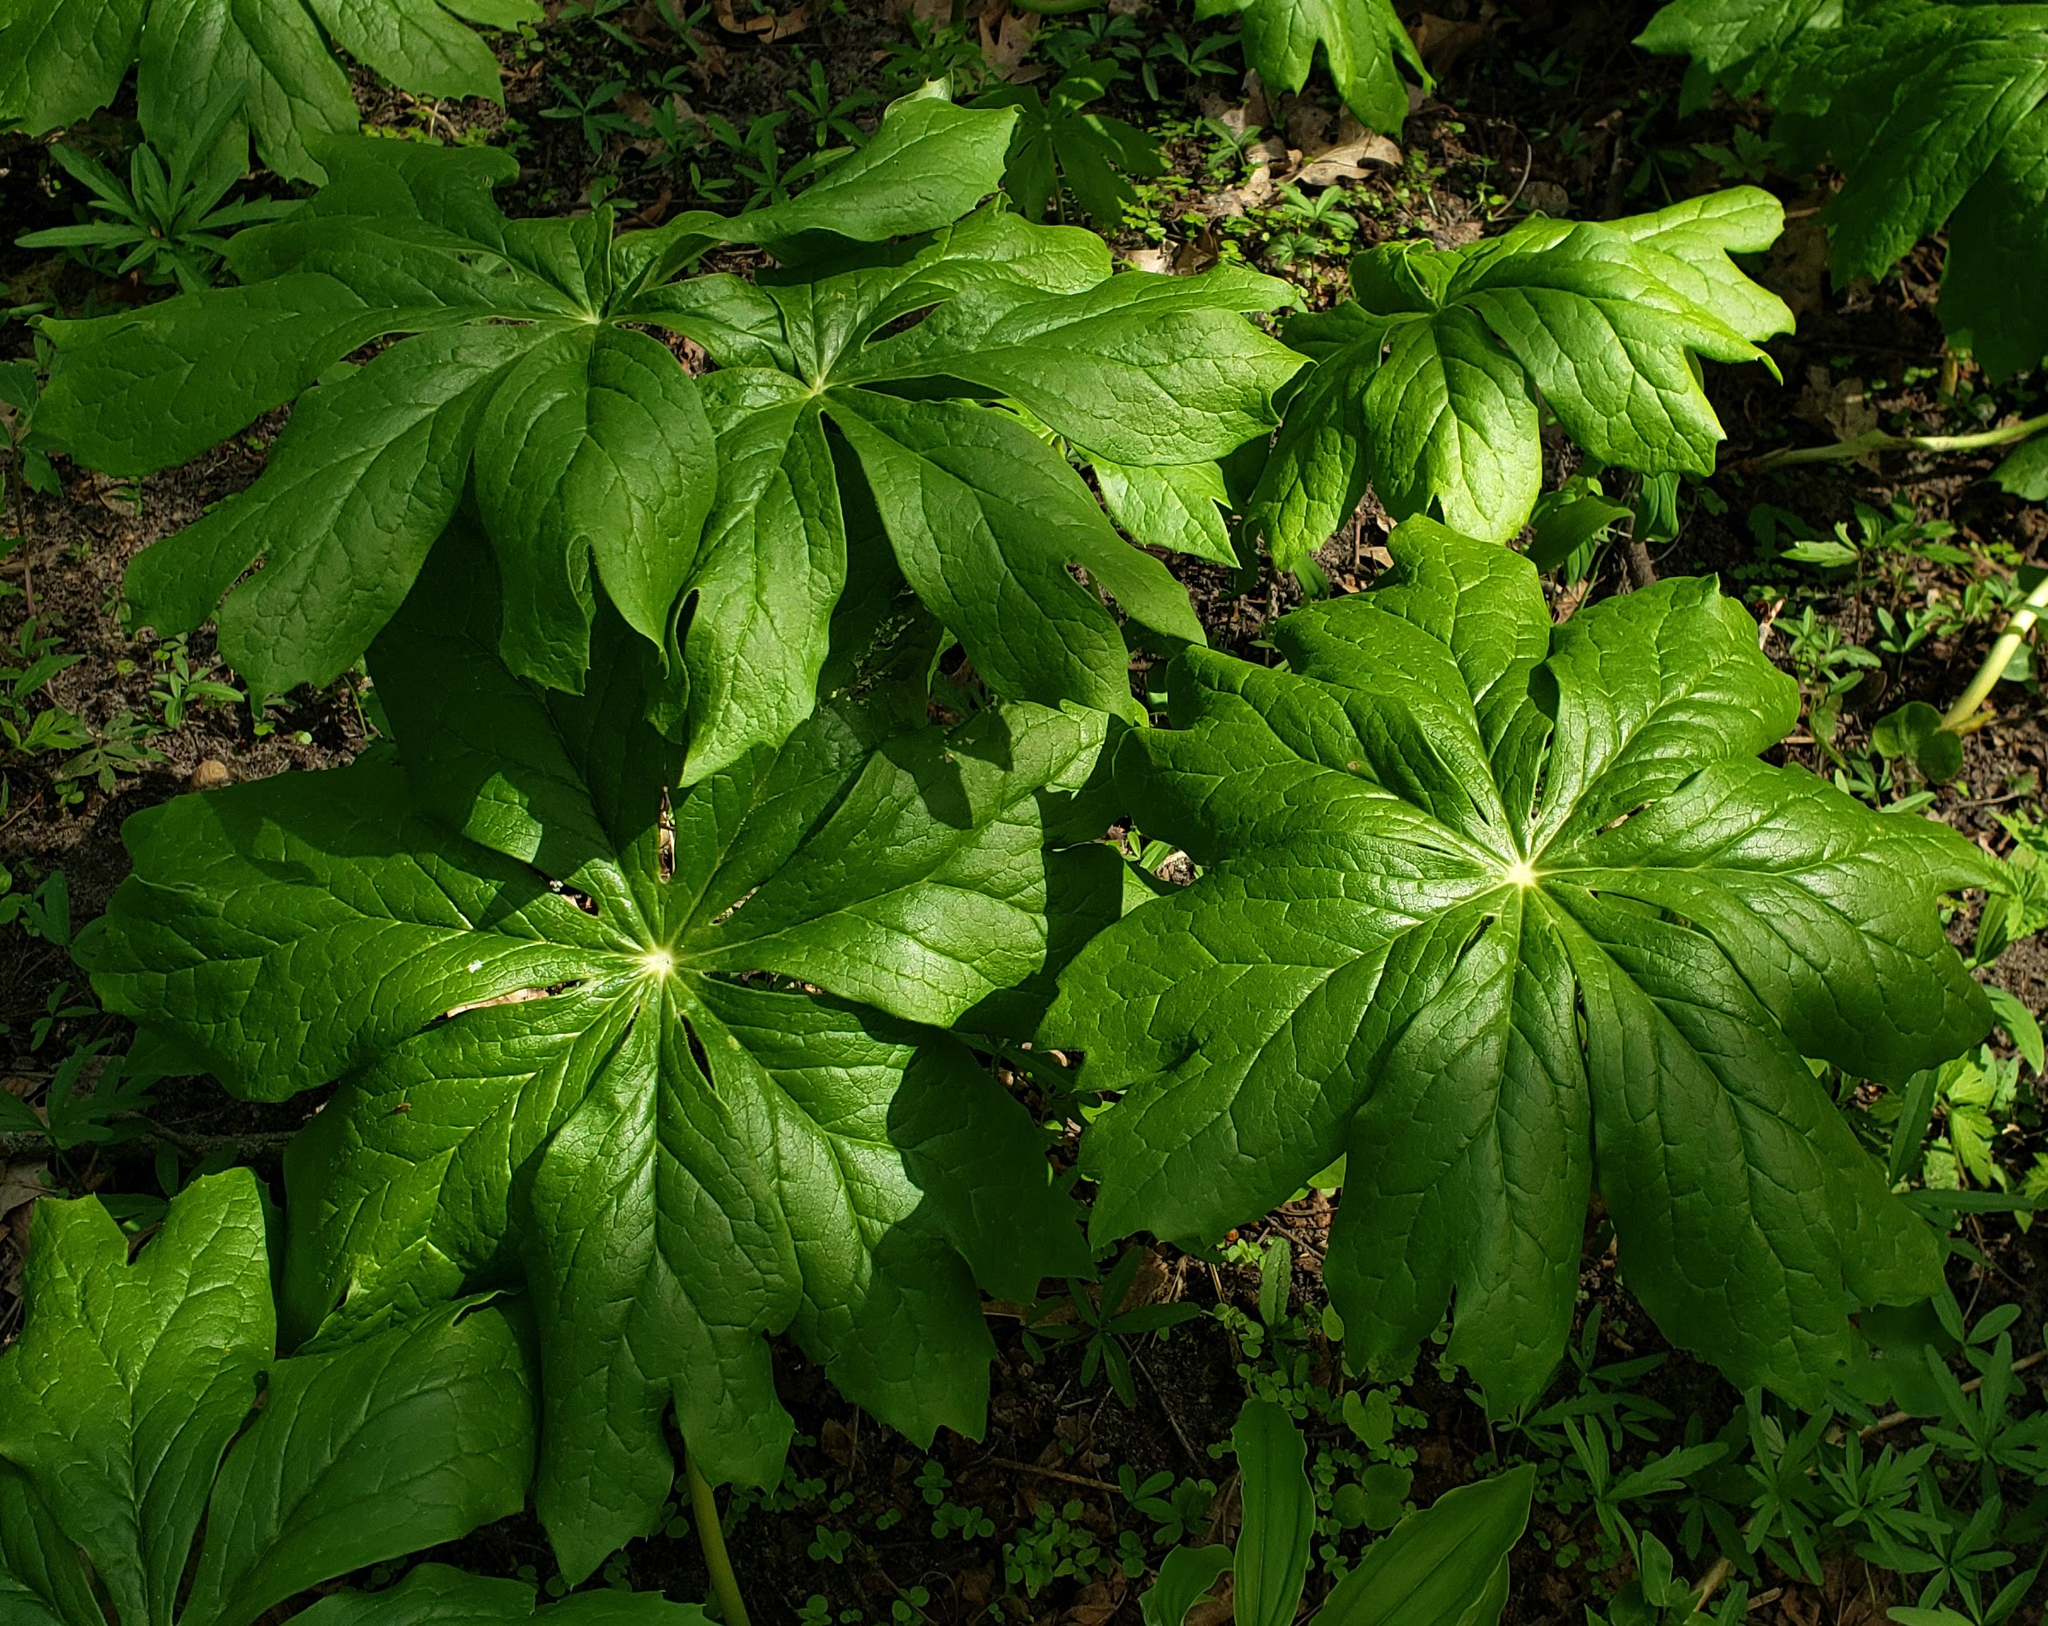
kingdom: Plantae
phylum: Tracheophyta
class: Magnoliopsida
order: Ranunculales
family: Berberidaceae
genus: Podophyllum
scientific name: Podophyllum peltatum
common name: Wild mandrake
